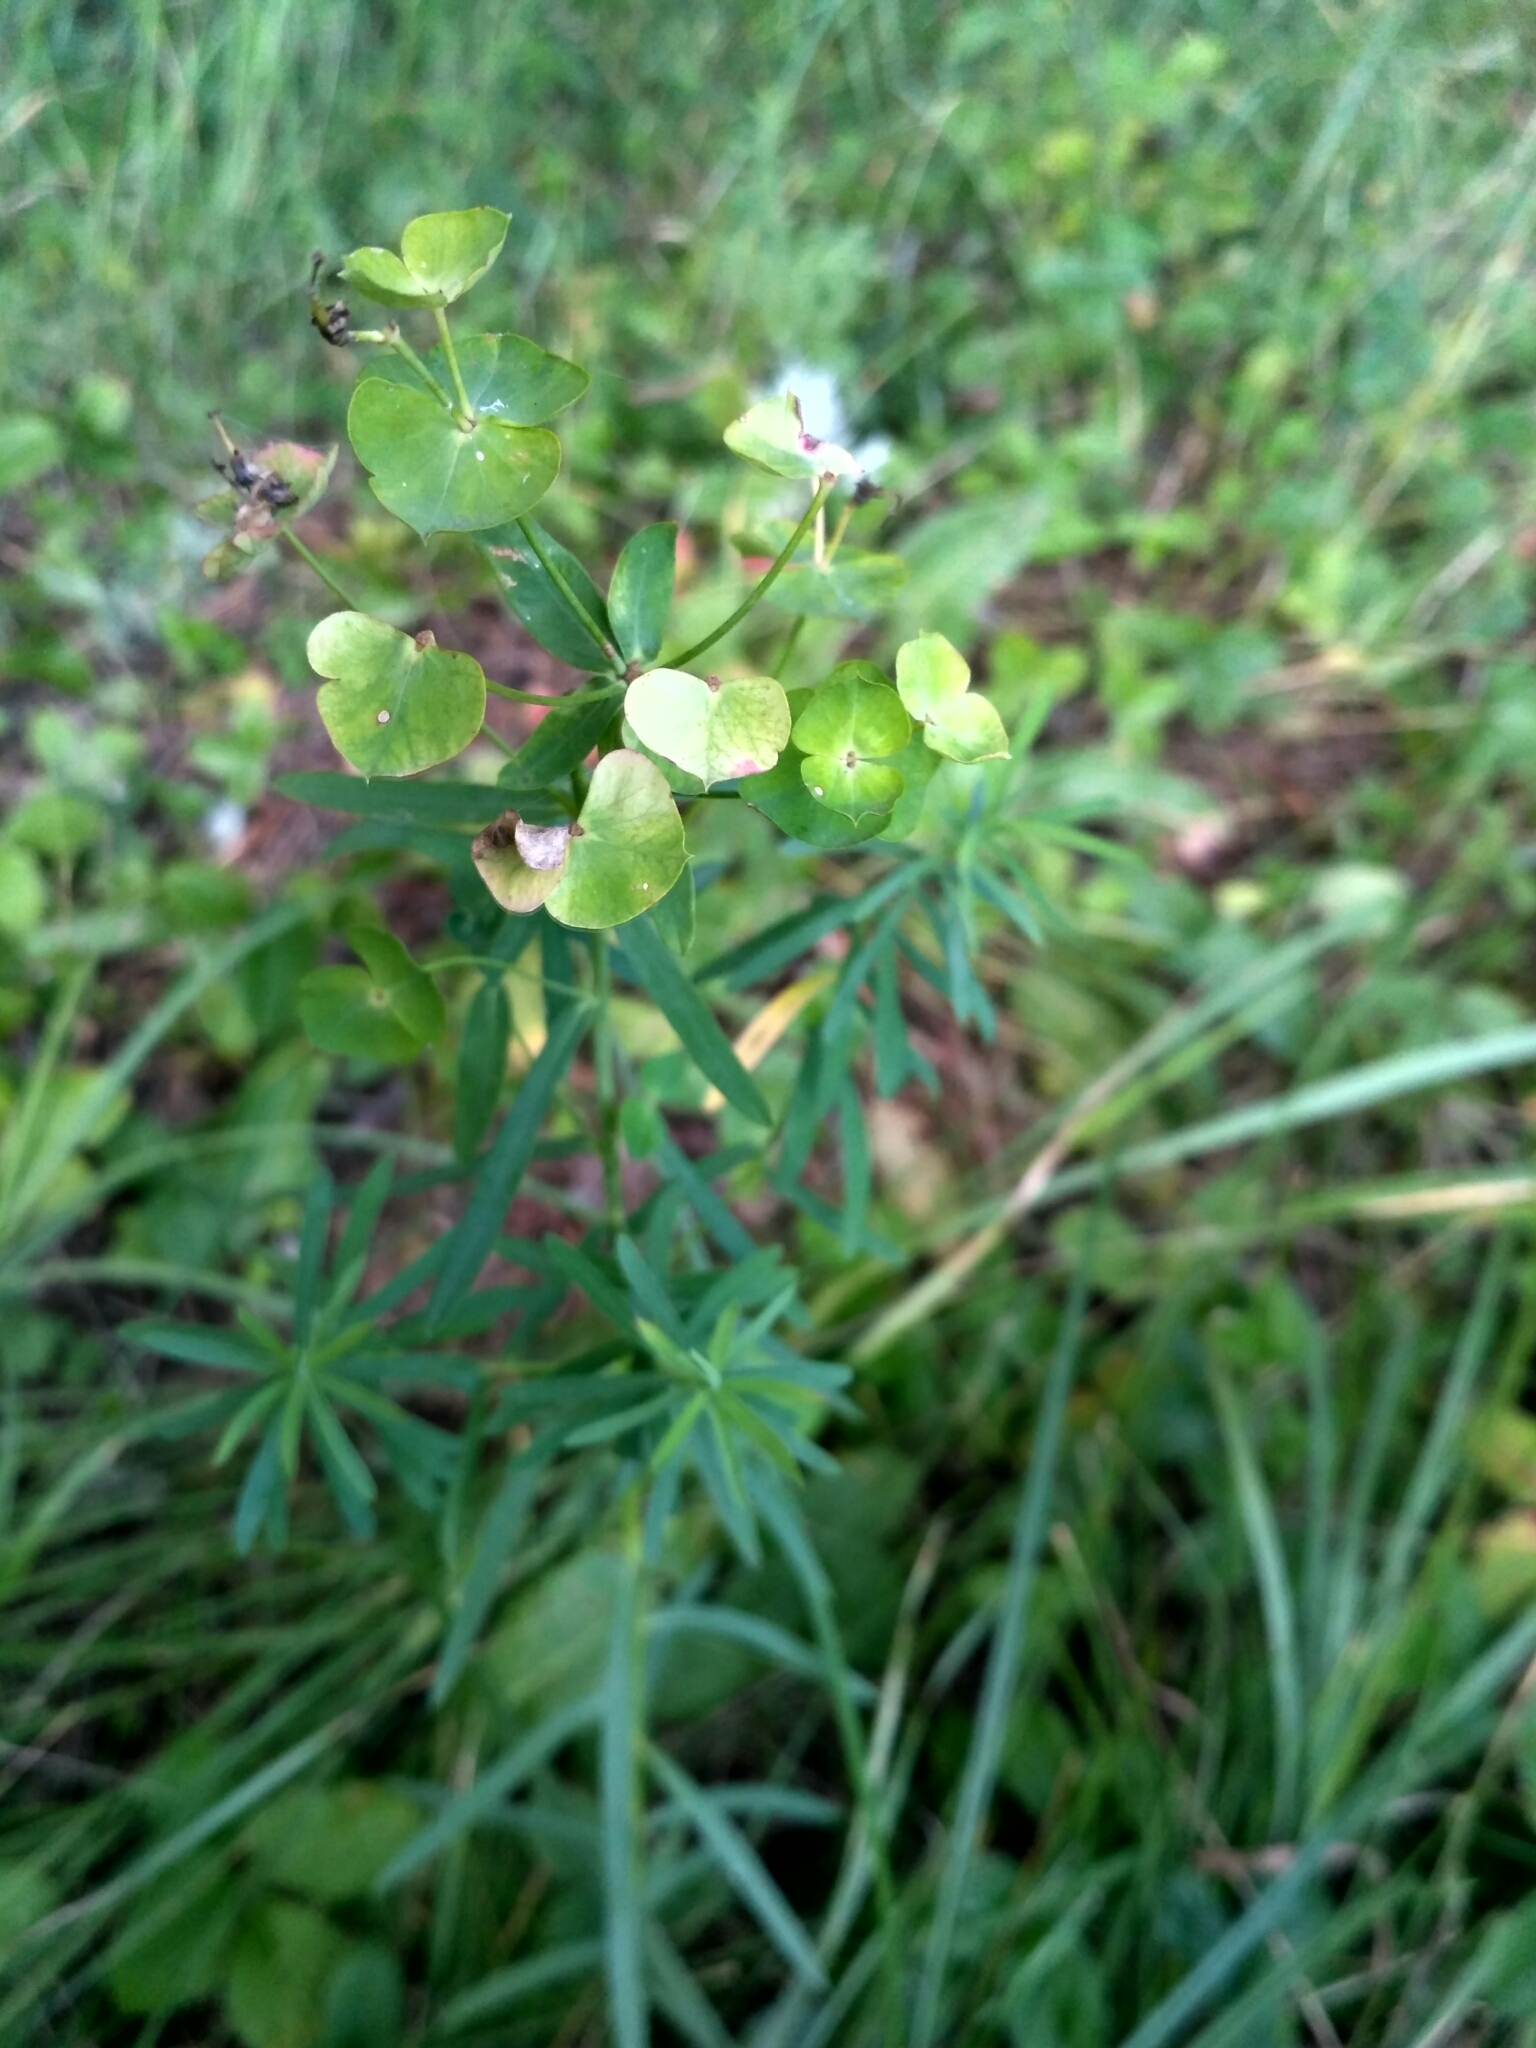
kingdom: Plantae
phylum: Tracheophyta
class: Magnoliopsida
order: Malpighiales
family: Euphorbiaceae
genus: Euphorbia
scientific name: Euphorbia virgata
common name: Leafy spurge
